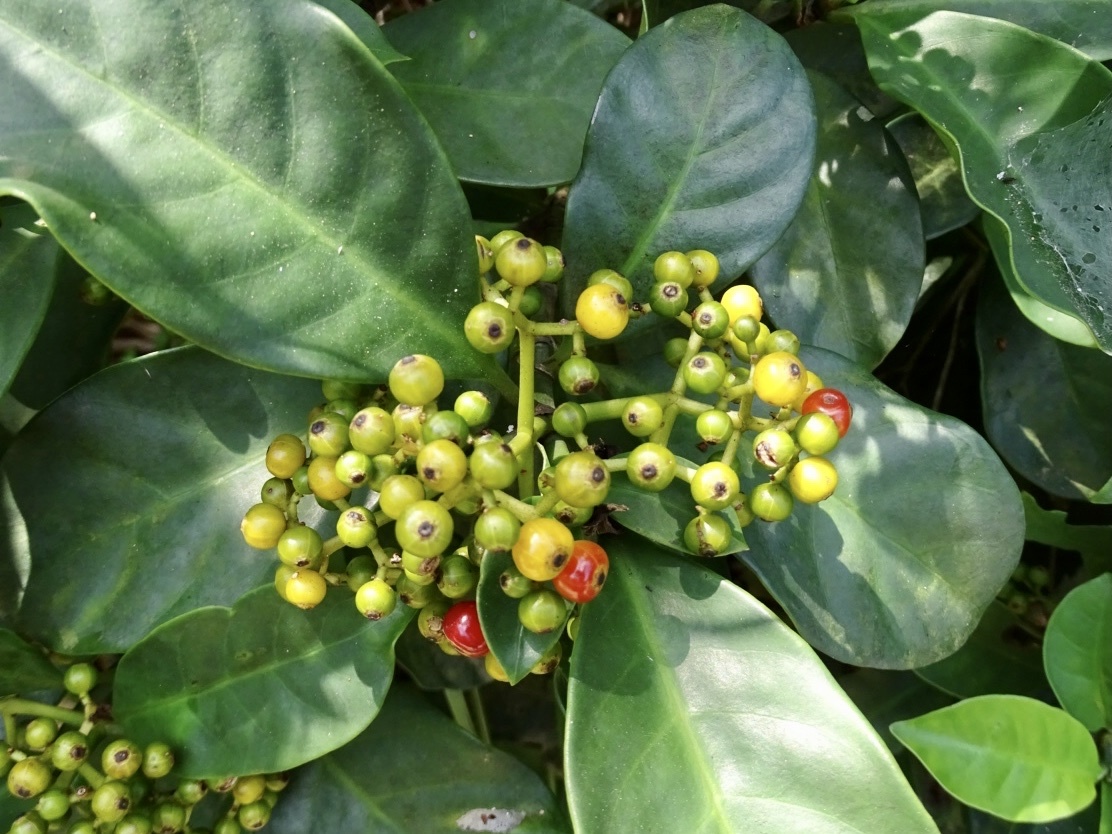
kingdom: Plantae
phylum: Tracheophyta
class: Magnoliopsida
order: Gentianales
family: Rubiaceae
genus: Psychotria
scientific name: Psychotria asiatica
